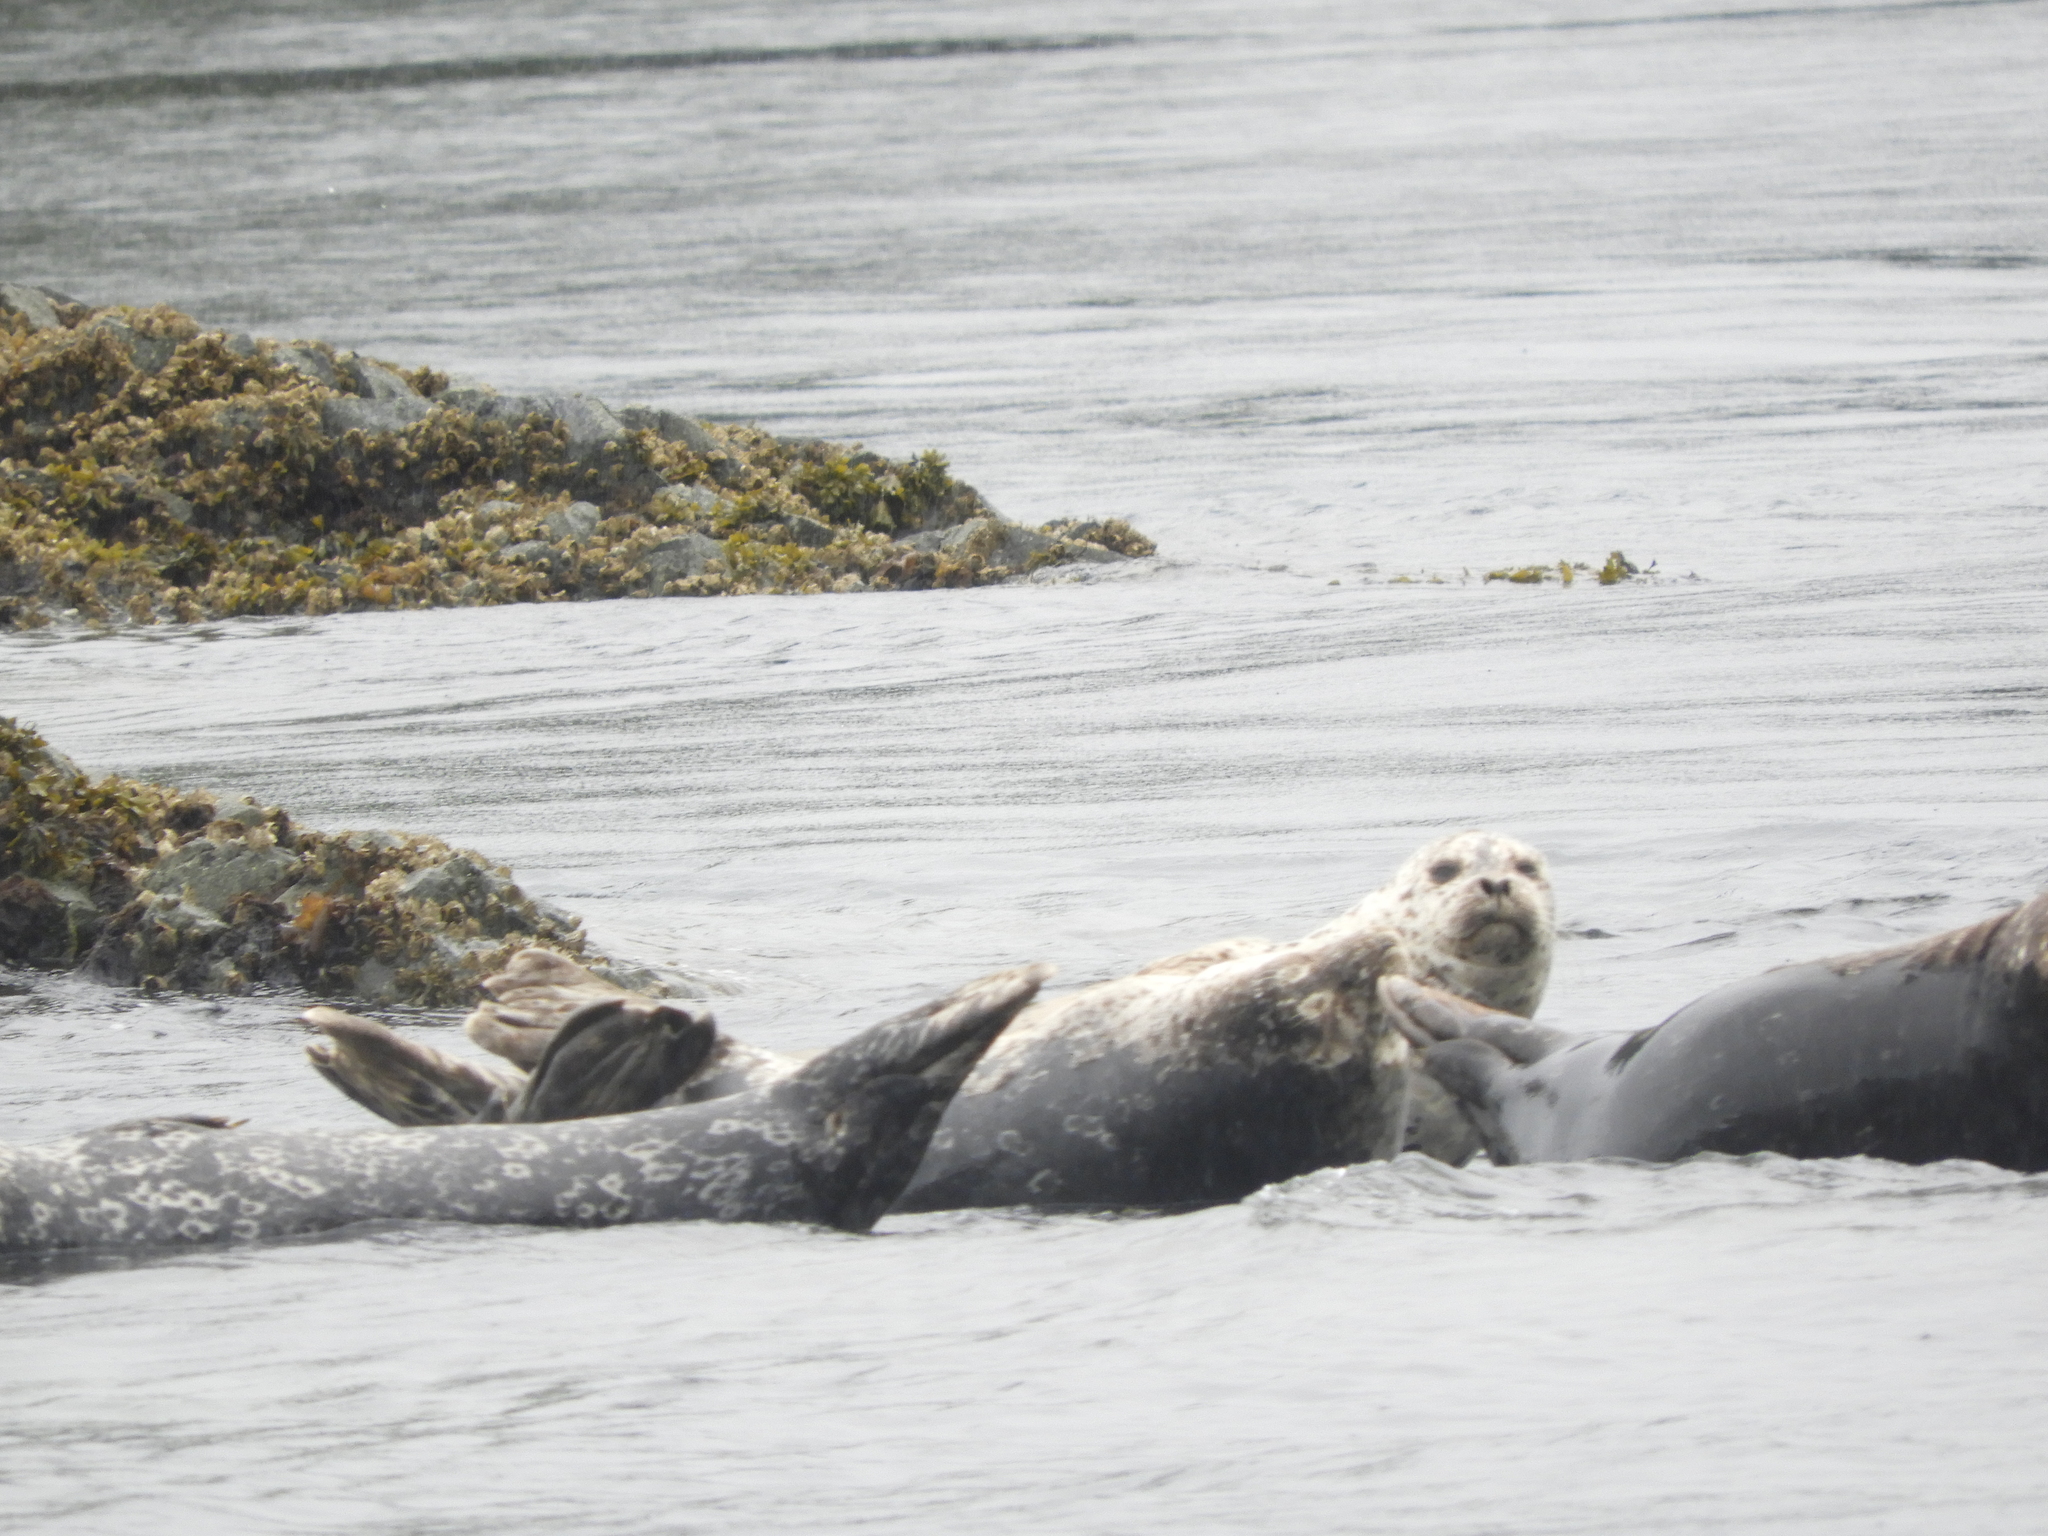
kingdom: Animalia
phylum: Chordata
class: Mammalia
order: Carnivora
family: Phocidae
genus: Phoca
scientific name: Phoca vitulina
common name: Harbor seal
